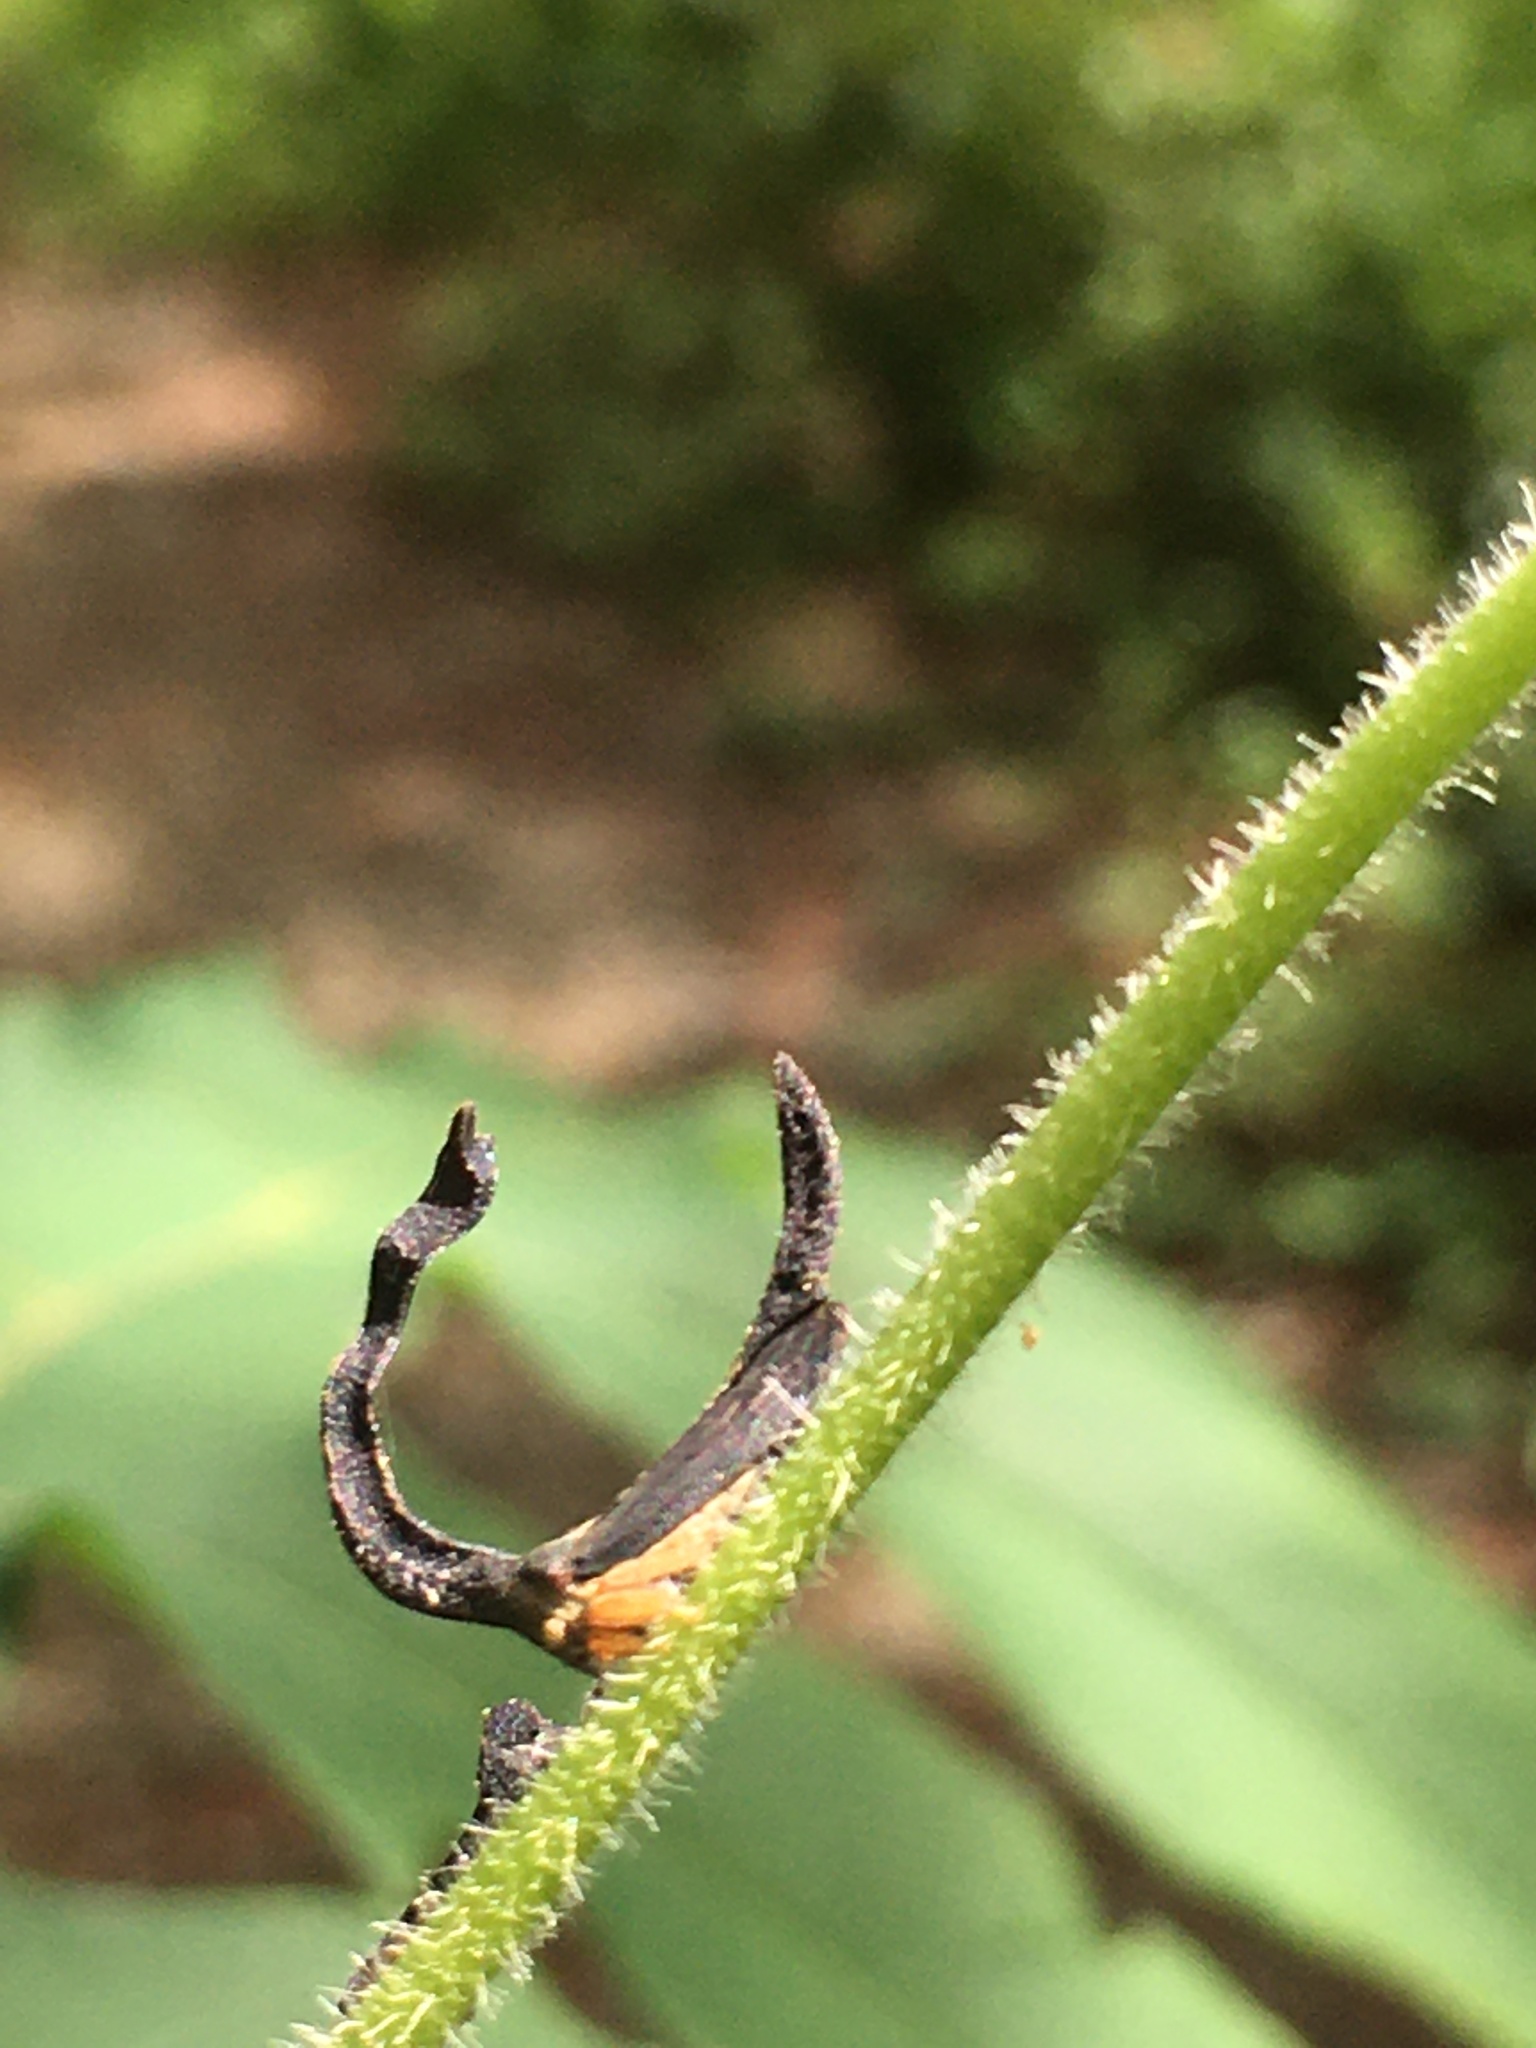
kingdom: Animalia
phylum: Arthropoda
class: Insecta
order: Hemiptera
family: Membracidae
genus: Cladonota
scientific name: Cladonota apicalis
